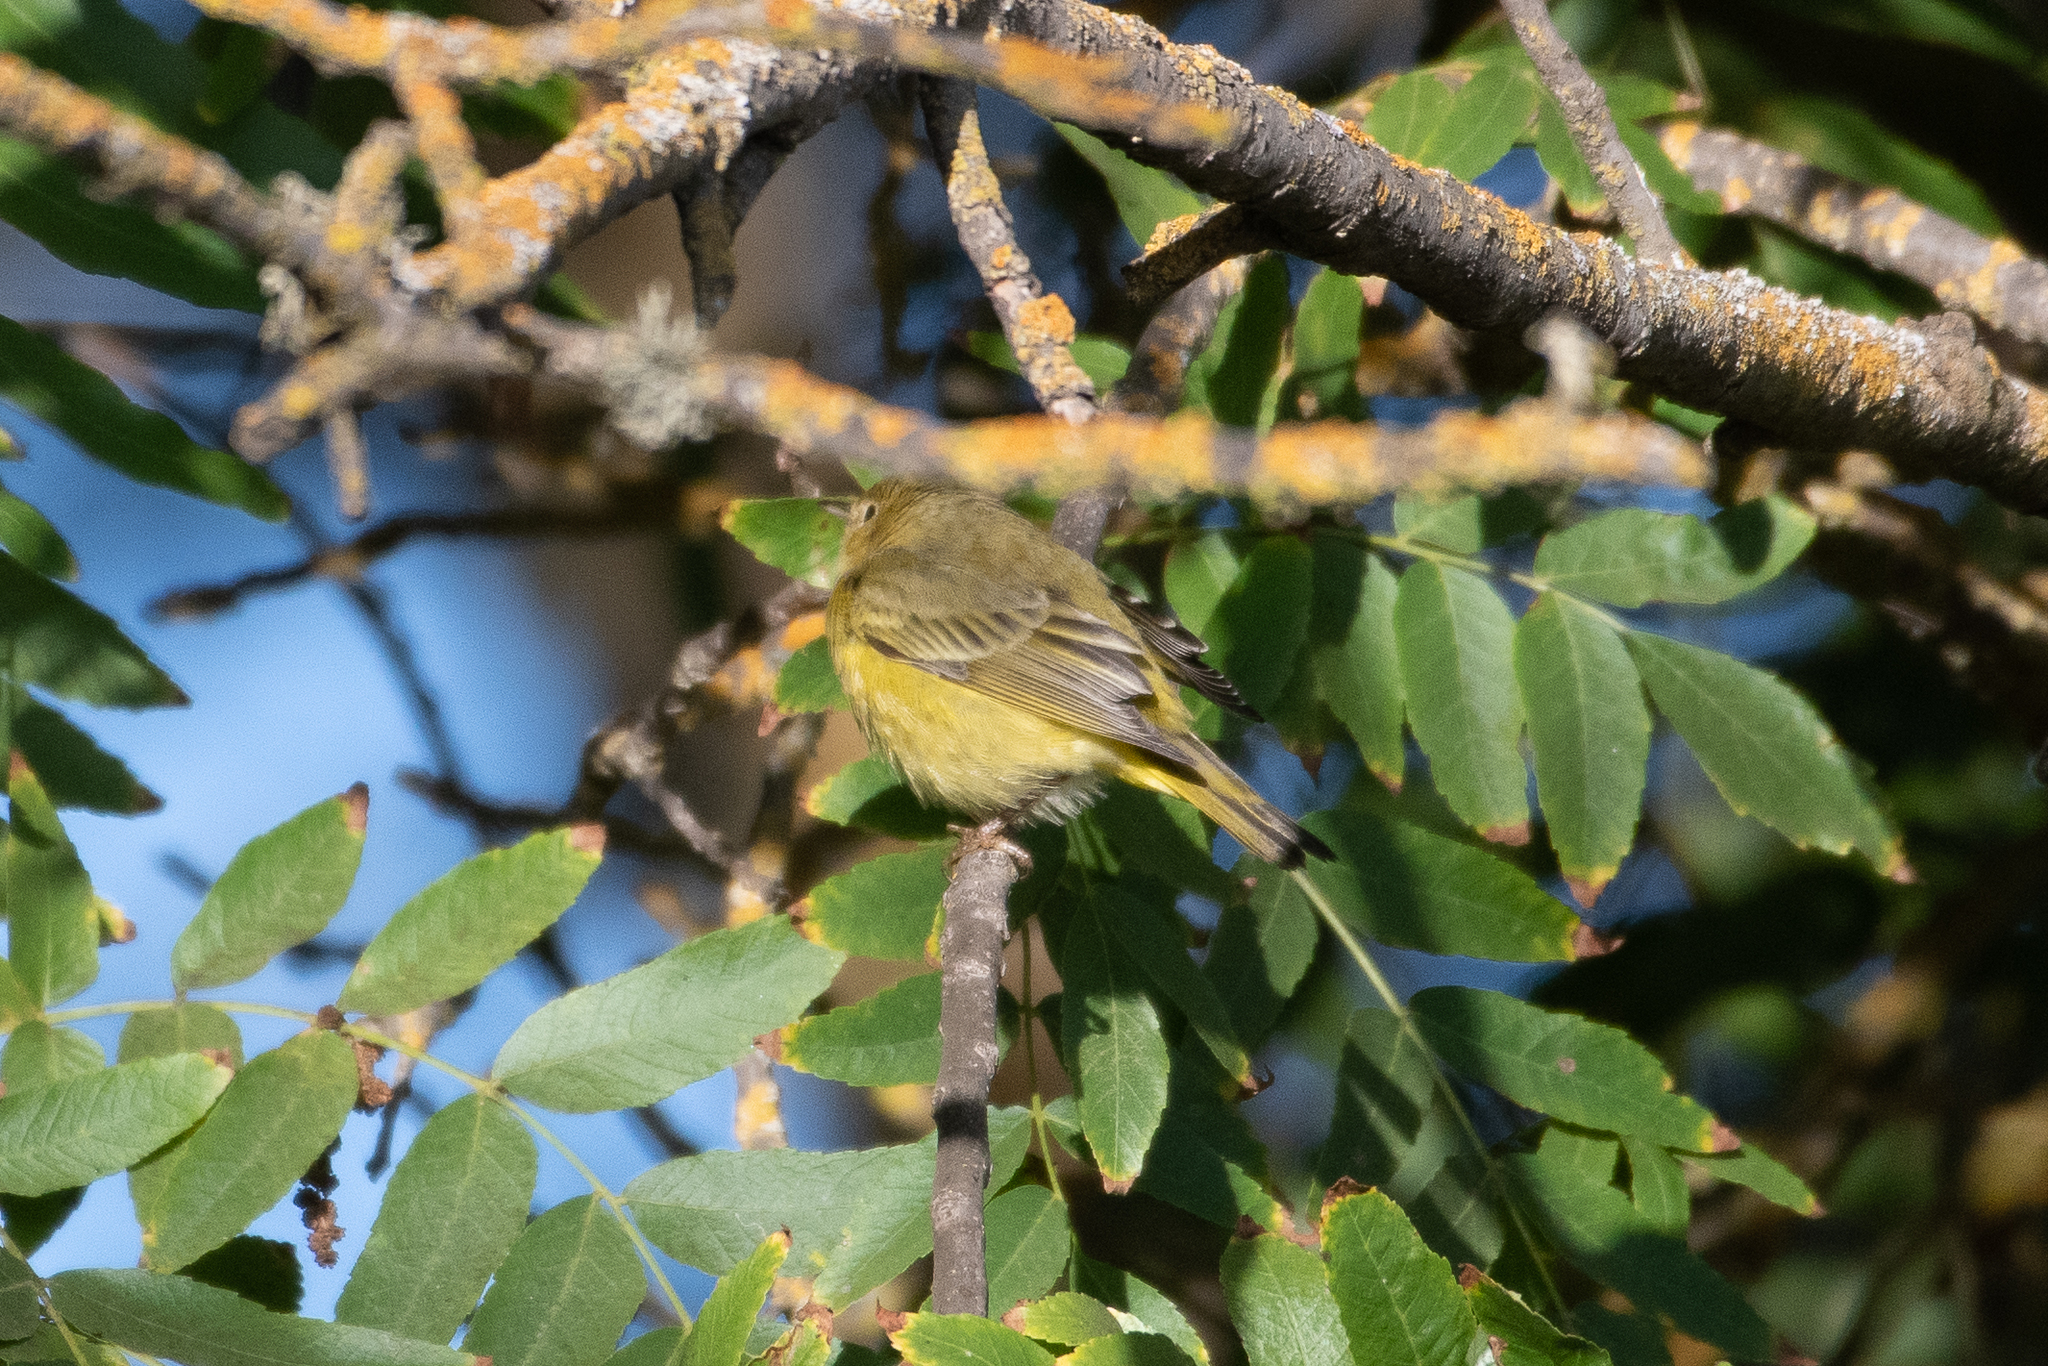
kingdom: Animalia
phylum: Chordata
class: Aves
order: Passeriformes
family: Parulidae
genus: Setophaga
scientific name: Setophaga petechia
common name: Yellow warbler
